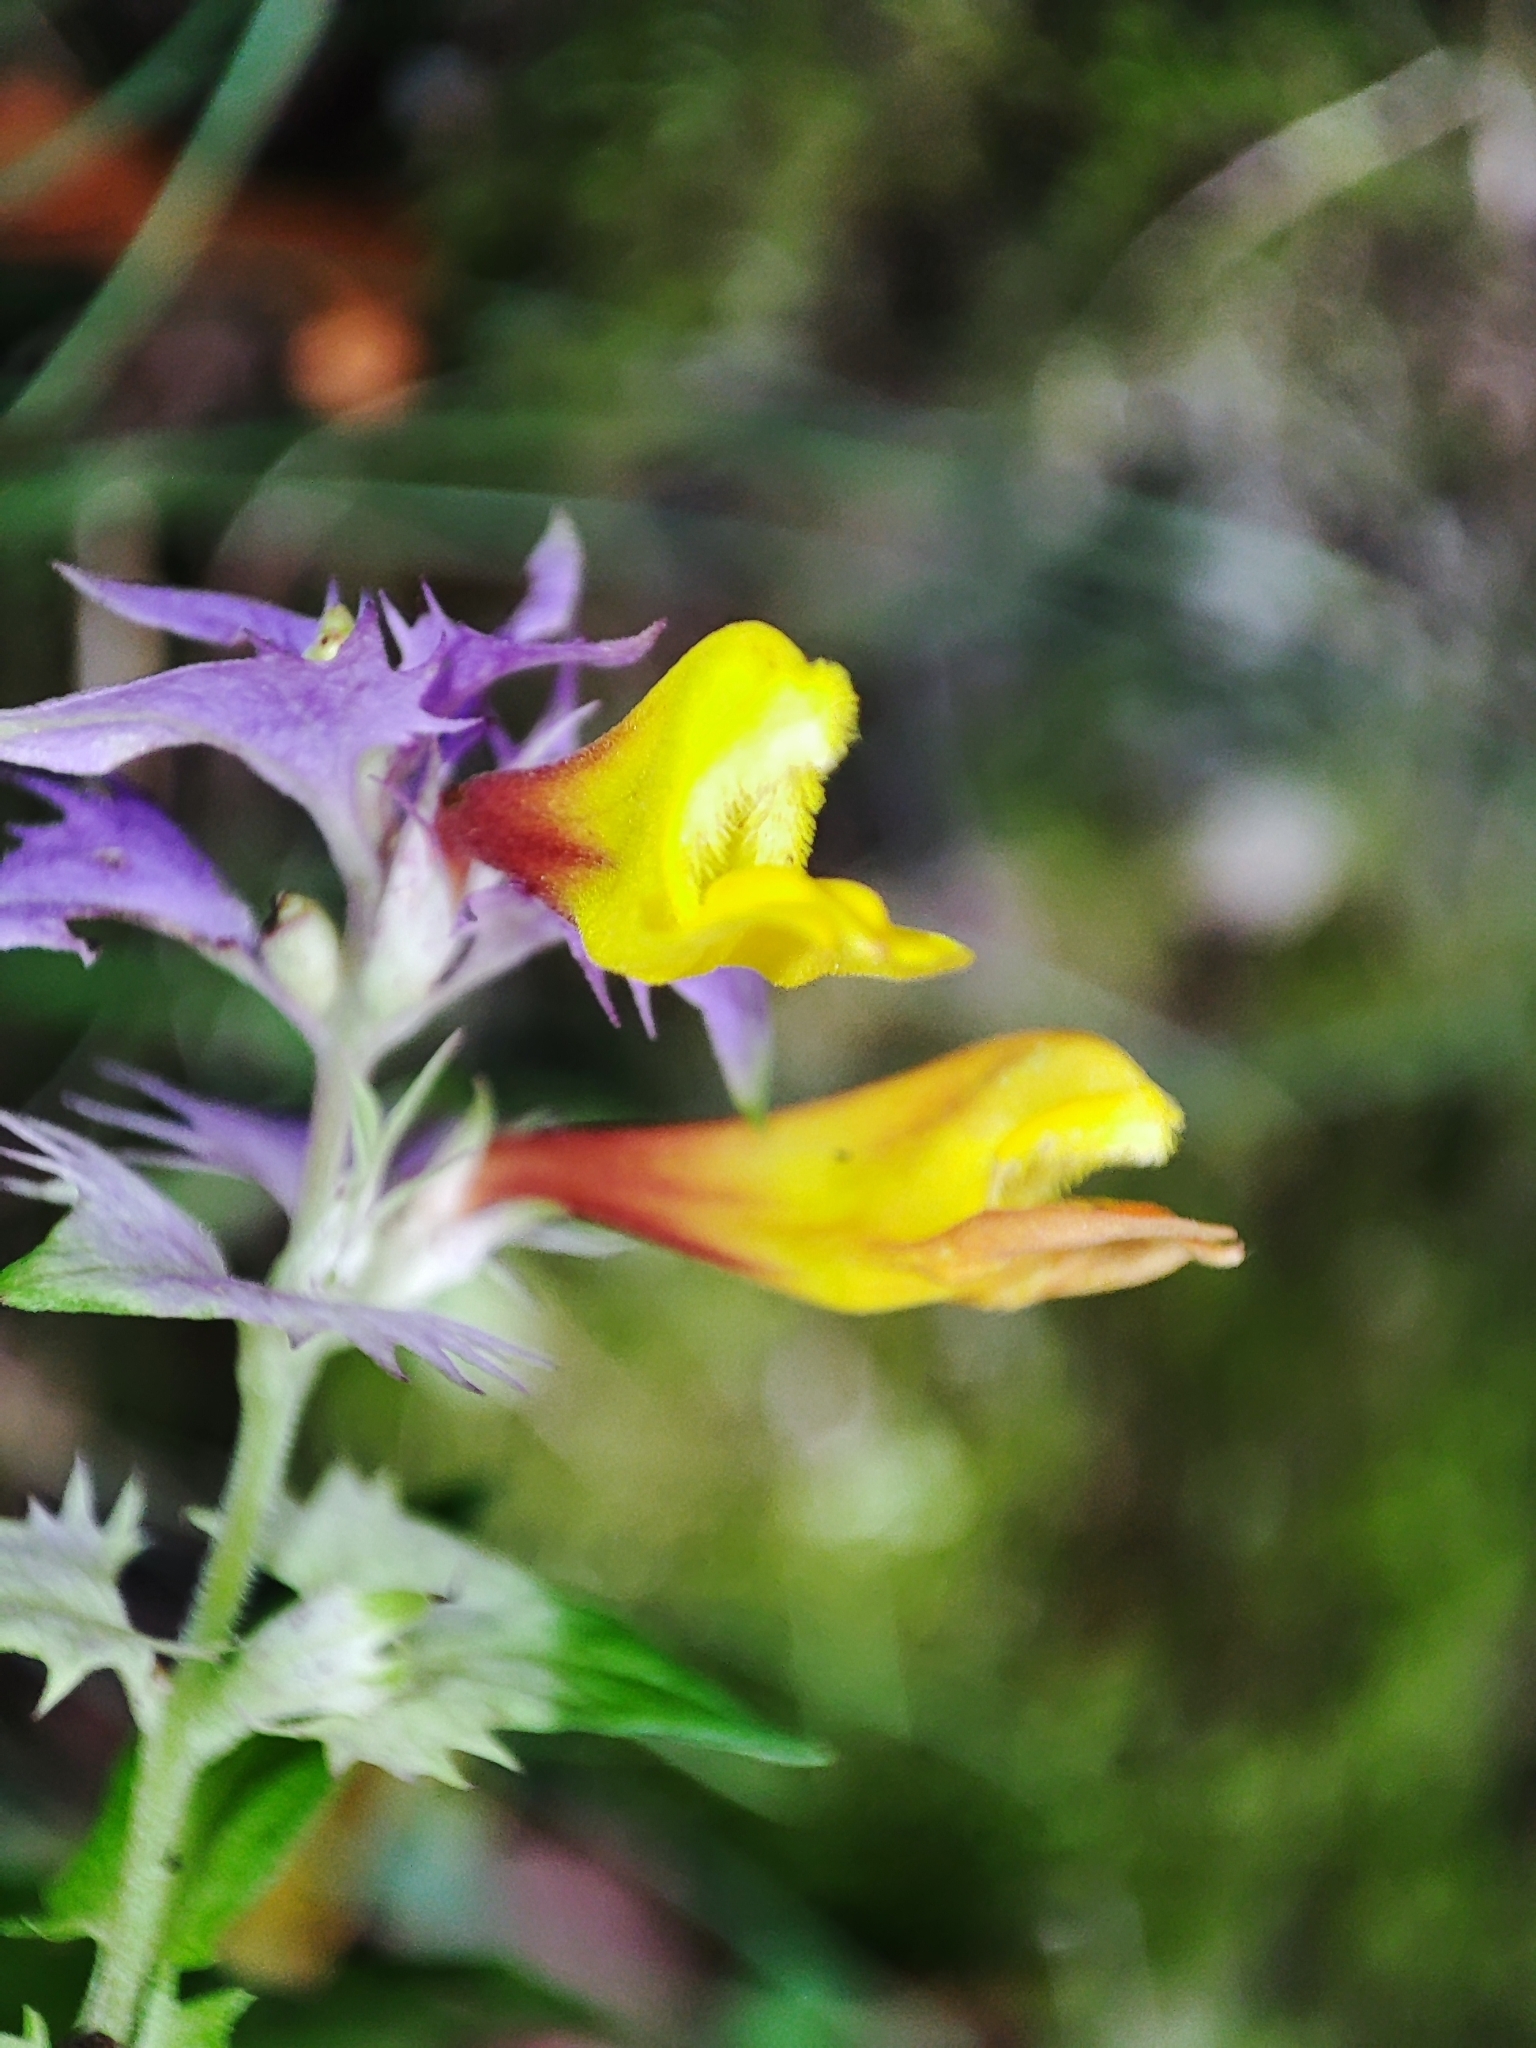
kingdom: Plantae
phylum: Tracheophyta
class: Magnoliopsida
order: Lamiales
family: Orobanchaceae
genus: Melampyrum
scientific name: Melampyrum nemorosum
